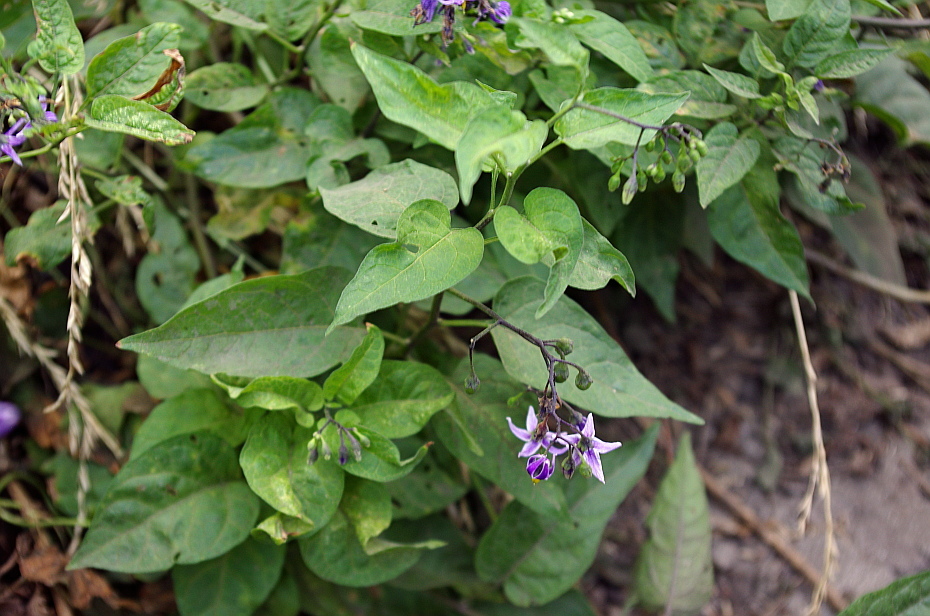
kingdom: Plantae
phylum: Tracheophyta
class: Magnoliopsida
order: Solanales
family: Solanaceae
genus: Solanum
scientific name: Solanum dulcamara
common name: Climbing nightshade
